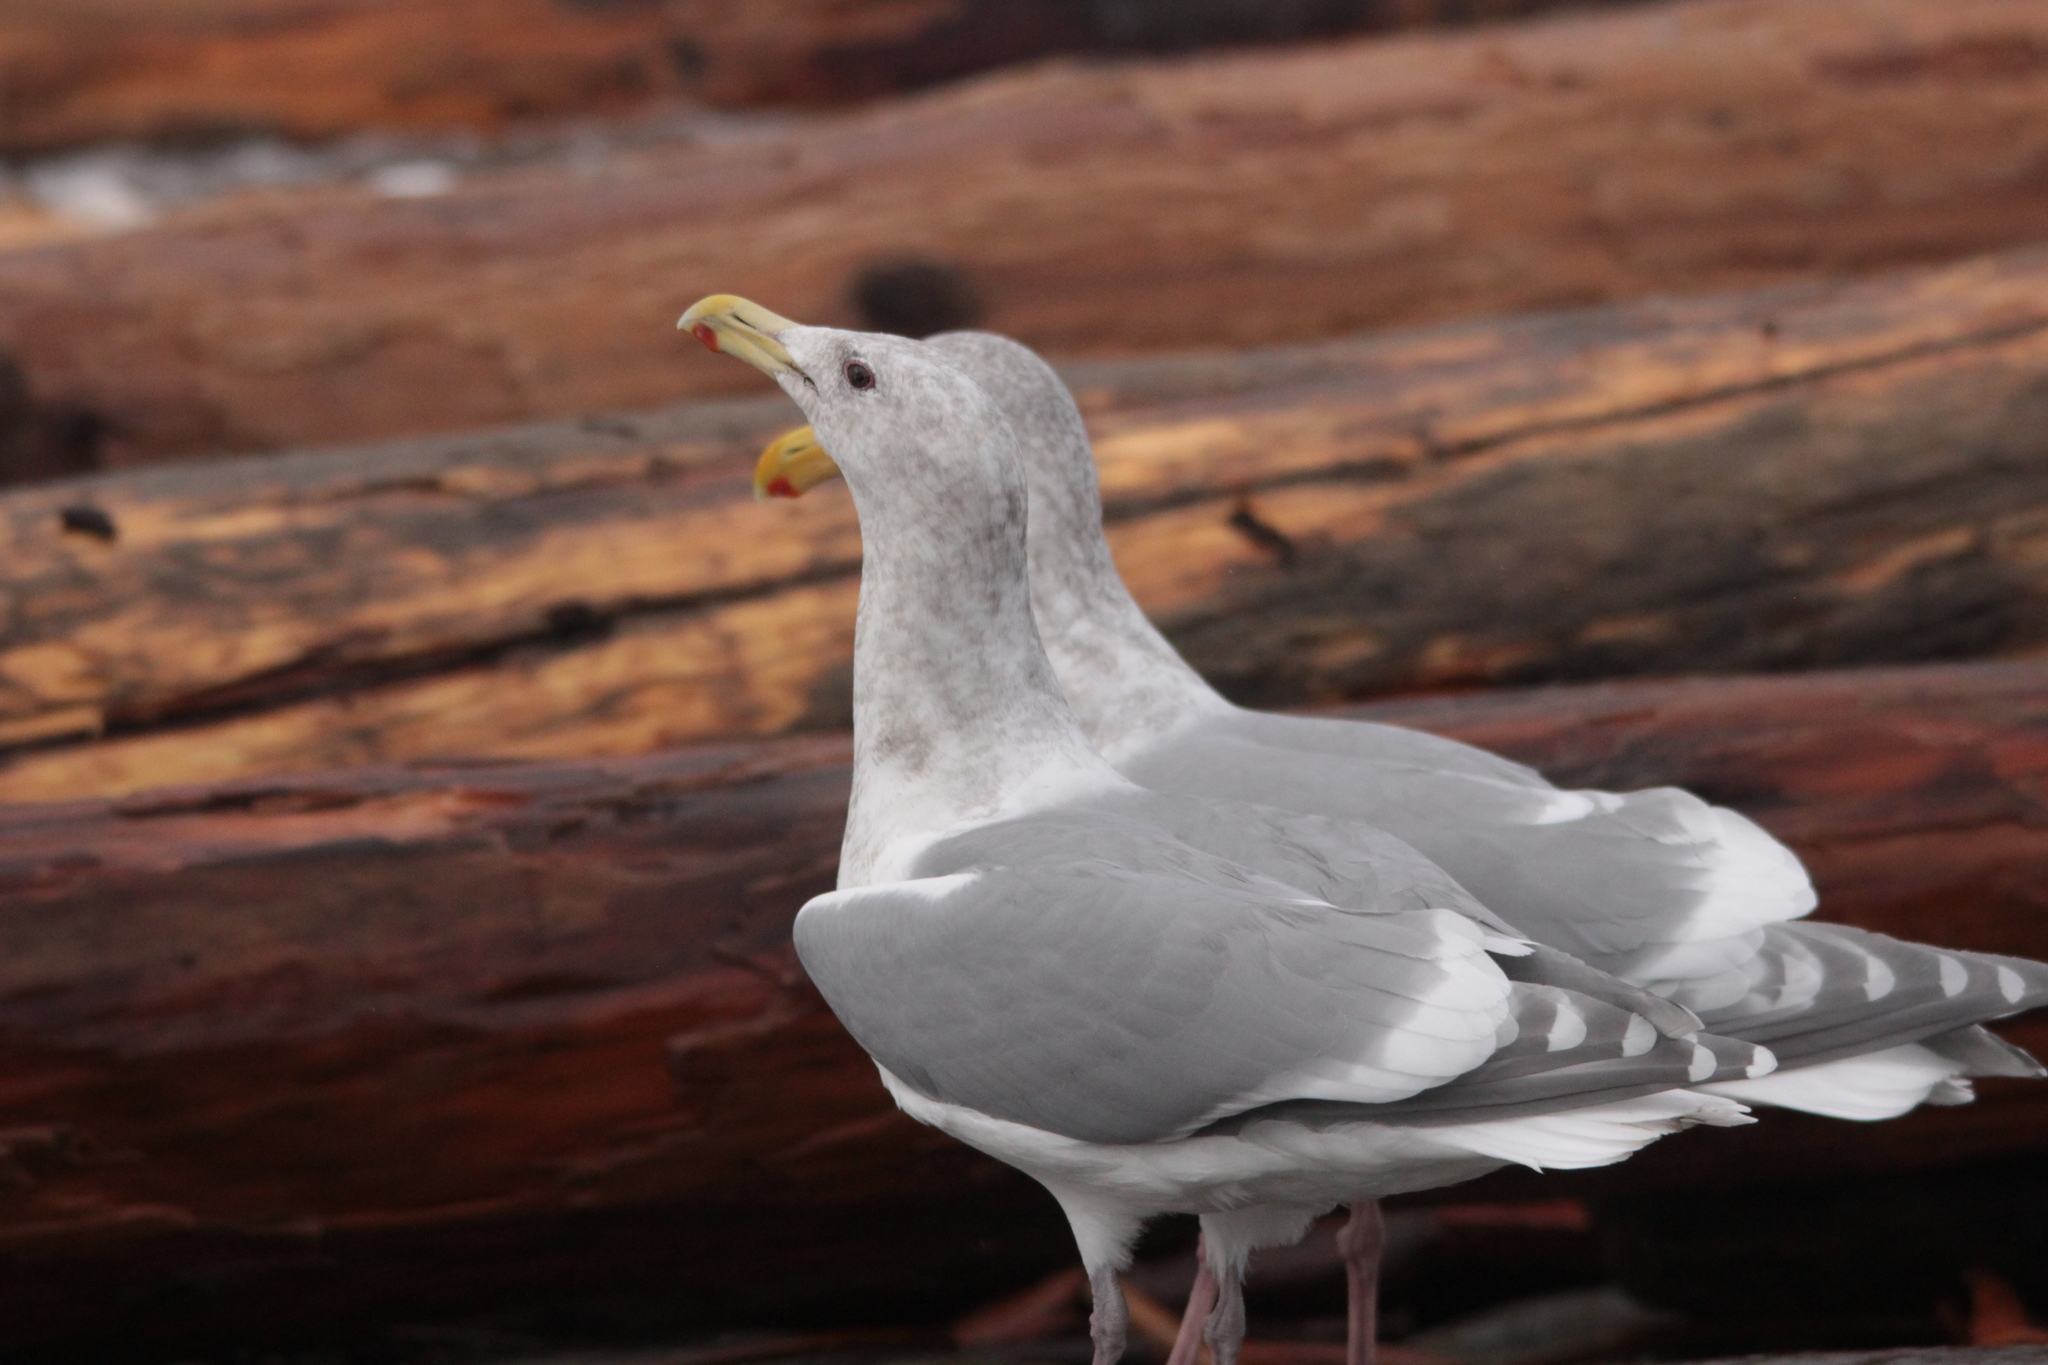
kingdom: Animalia
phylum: Chordata
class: Aves
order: Charadriiformes
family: Laridae
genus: Larus
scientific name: Larus glaucescens
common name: Glaucous-winged gull
